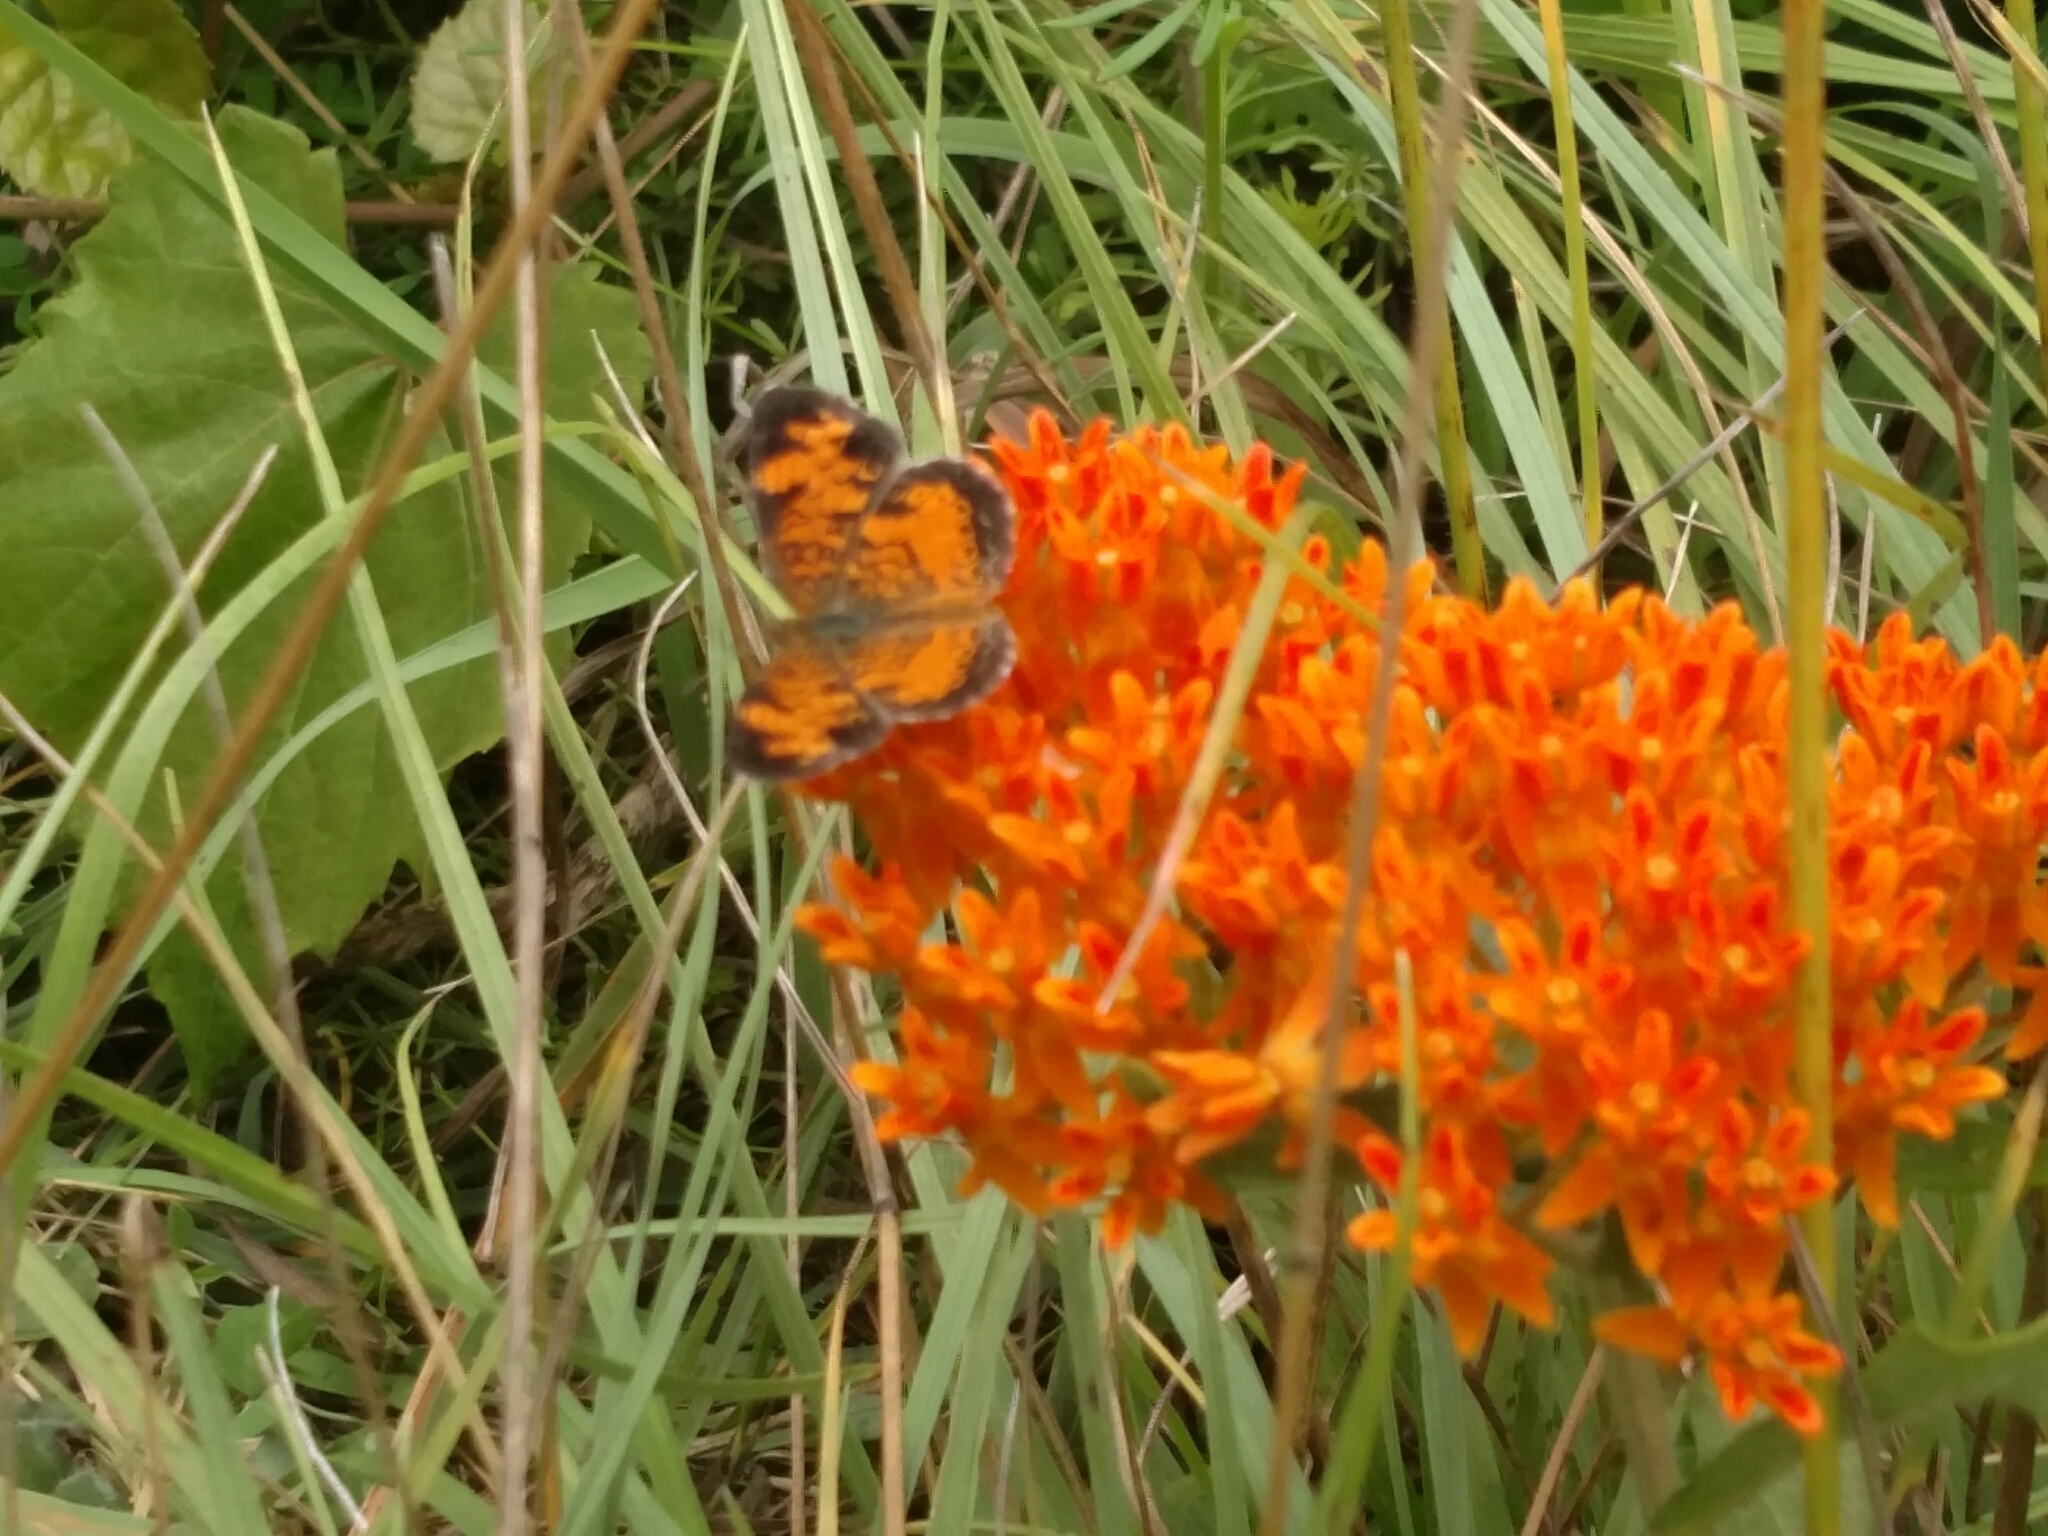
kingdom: Animalia
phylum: Arthropoda
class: Insecta
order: Lepidoptera
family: Nymphalidae
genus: Phyciodes
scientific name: Phyciodes tharos
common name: Pearl crescent
